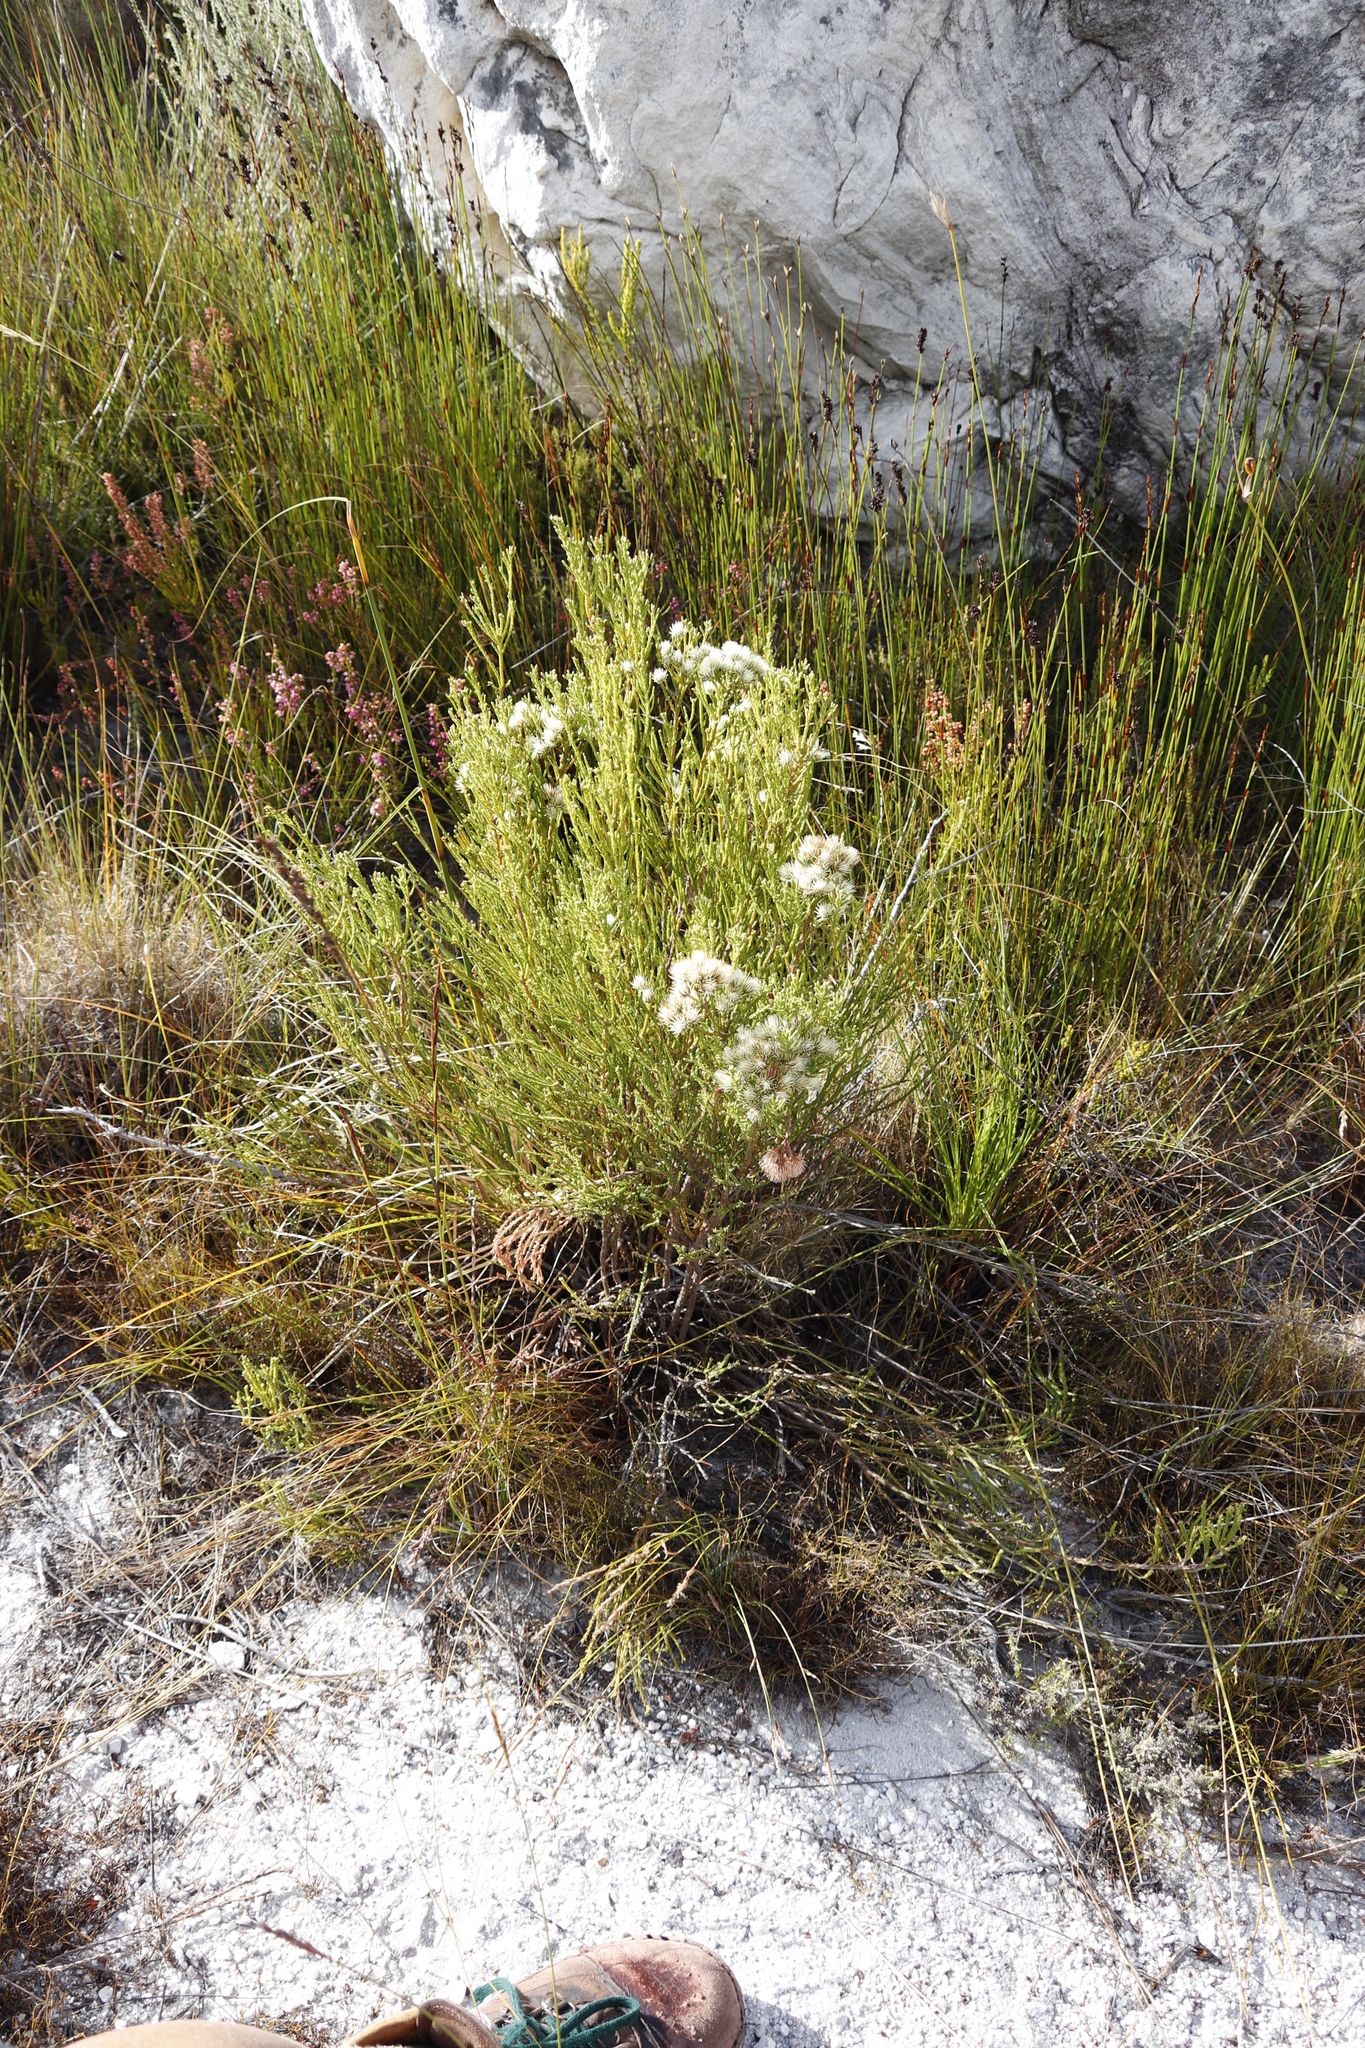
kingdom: Plantae
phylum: Tracheophyta
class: Magnoliopsida
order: Bruniales
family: Bruniaceae
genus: Brunia
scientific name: Brunia paleacea
